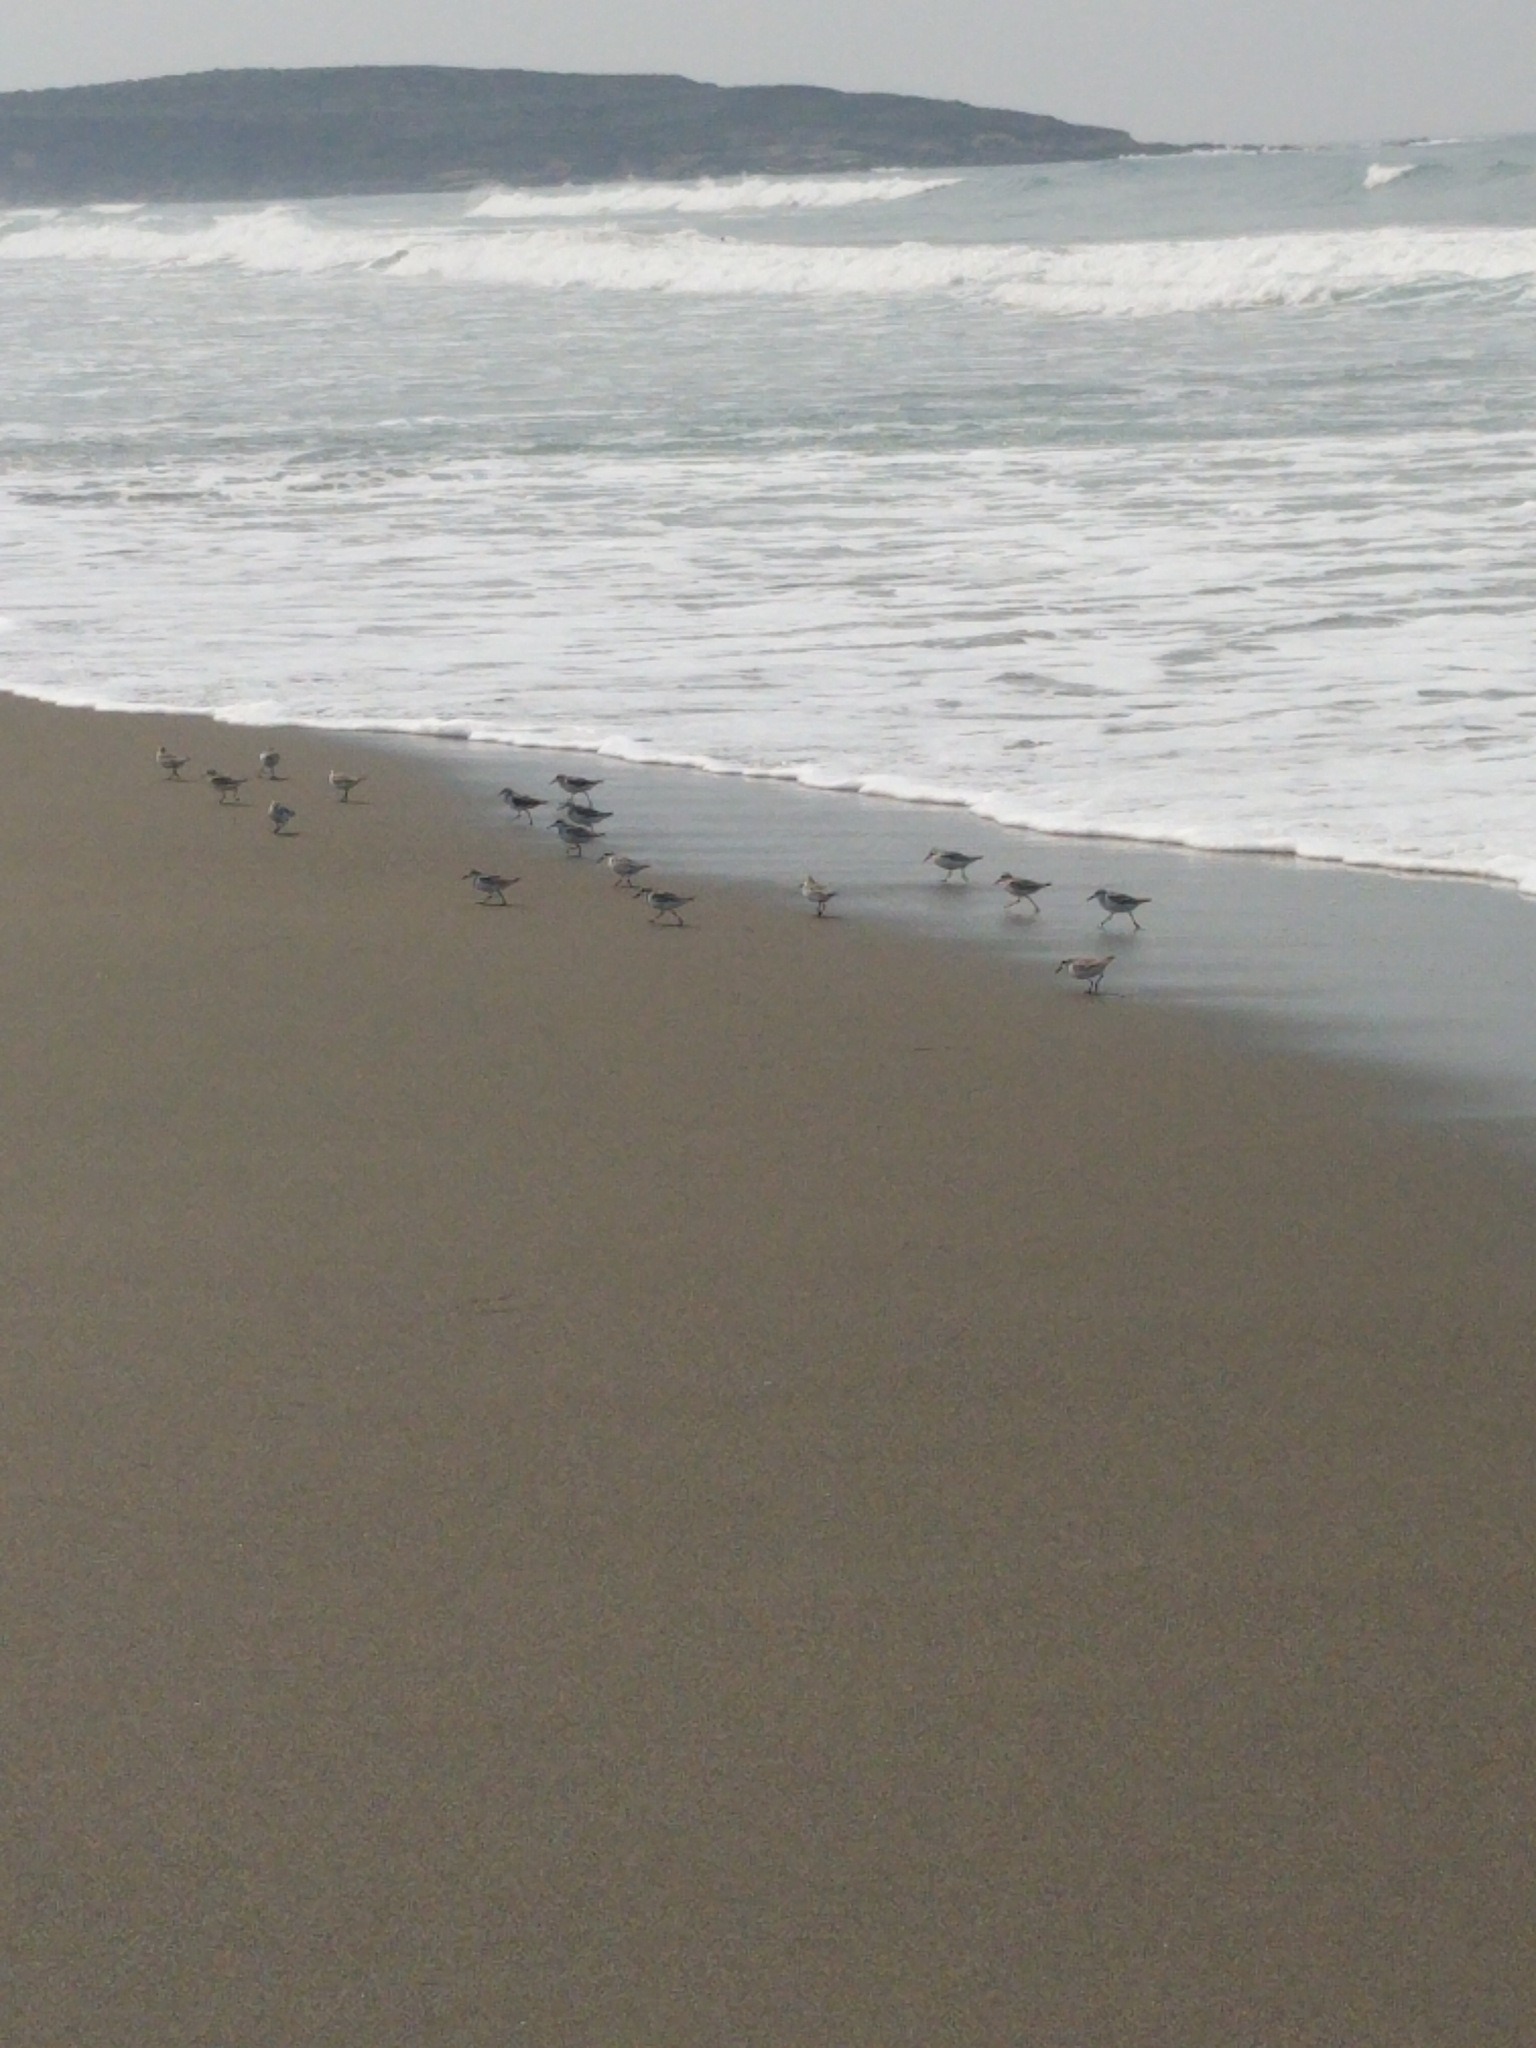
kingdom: Animalia
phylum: Chordata
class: Aves
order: Charadriiformes
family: Scolopacidae
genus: Calidris
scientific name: Calidris alba
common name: Sanderling
